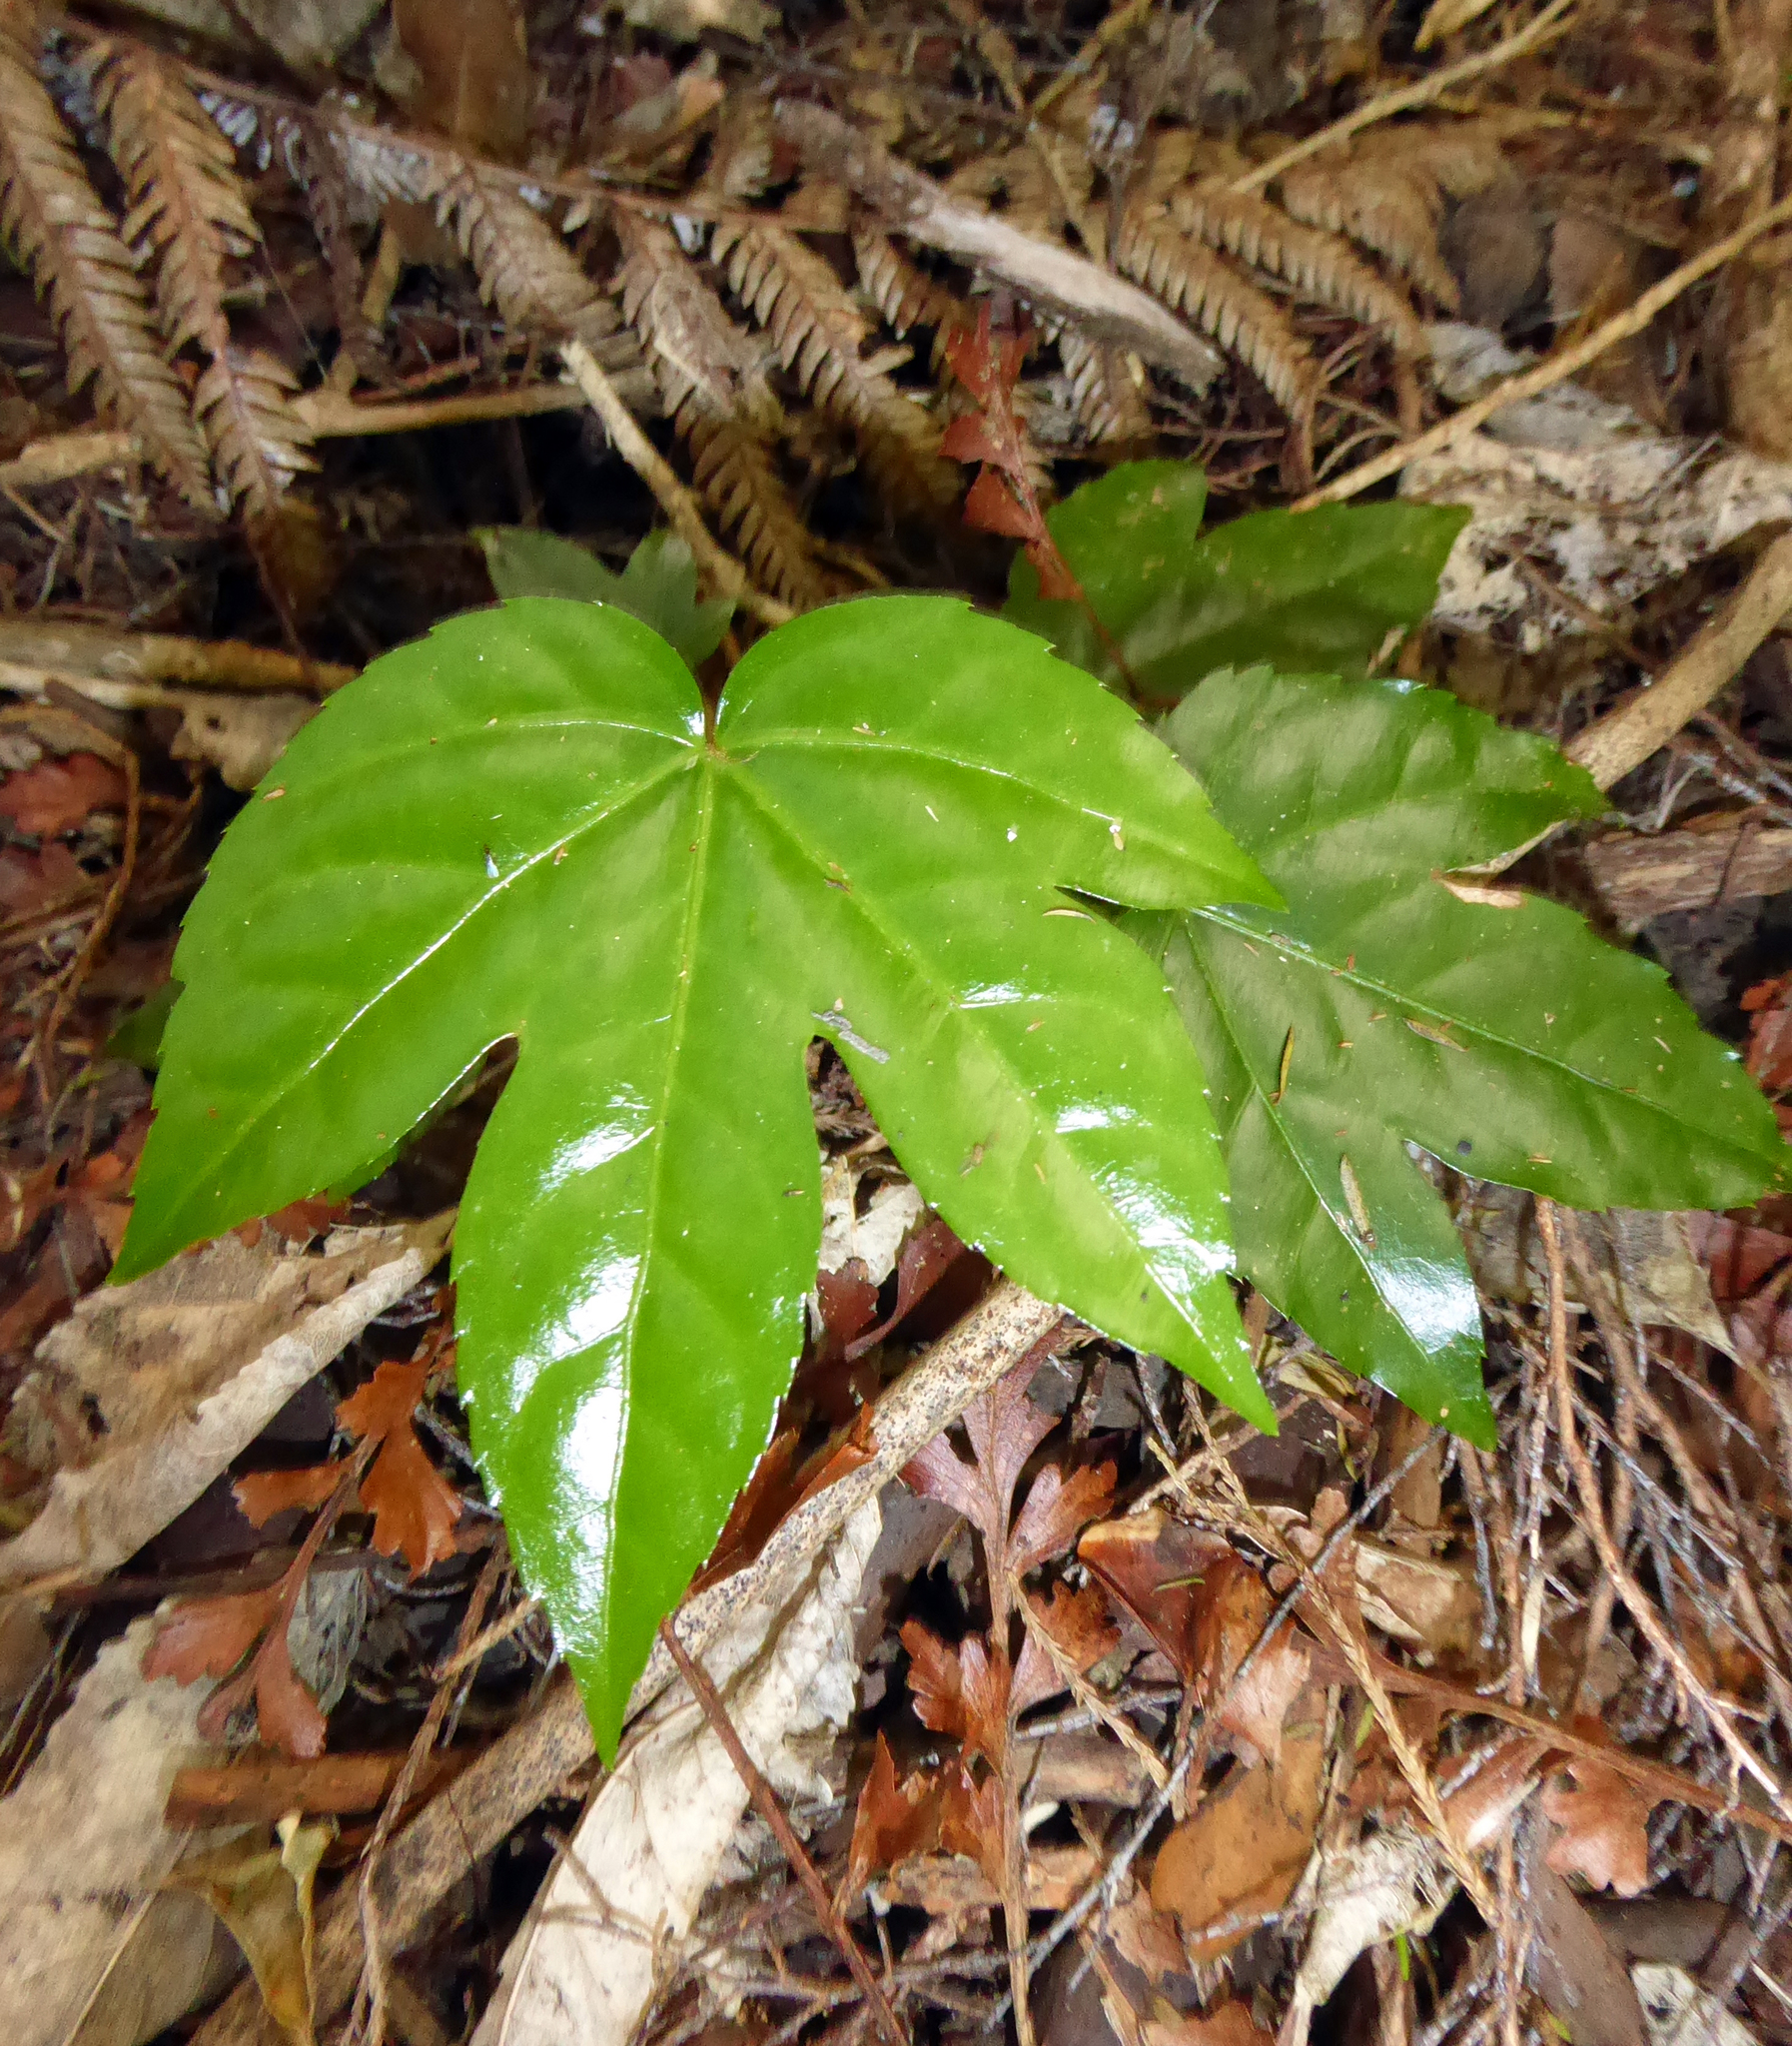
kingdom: Plantae
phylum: Tracheophyta
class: Magnoliopsida
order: Apiales
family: Araliaceae
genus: Fatsia
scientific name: Fatsia japonica
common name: Fatsia
